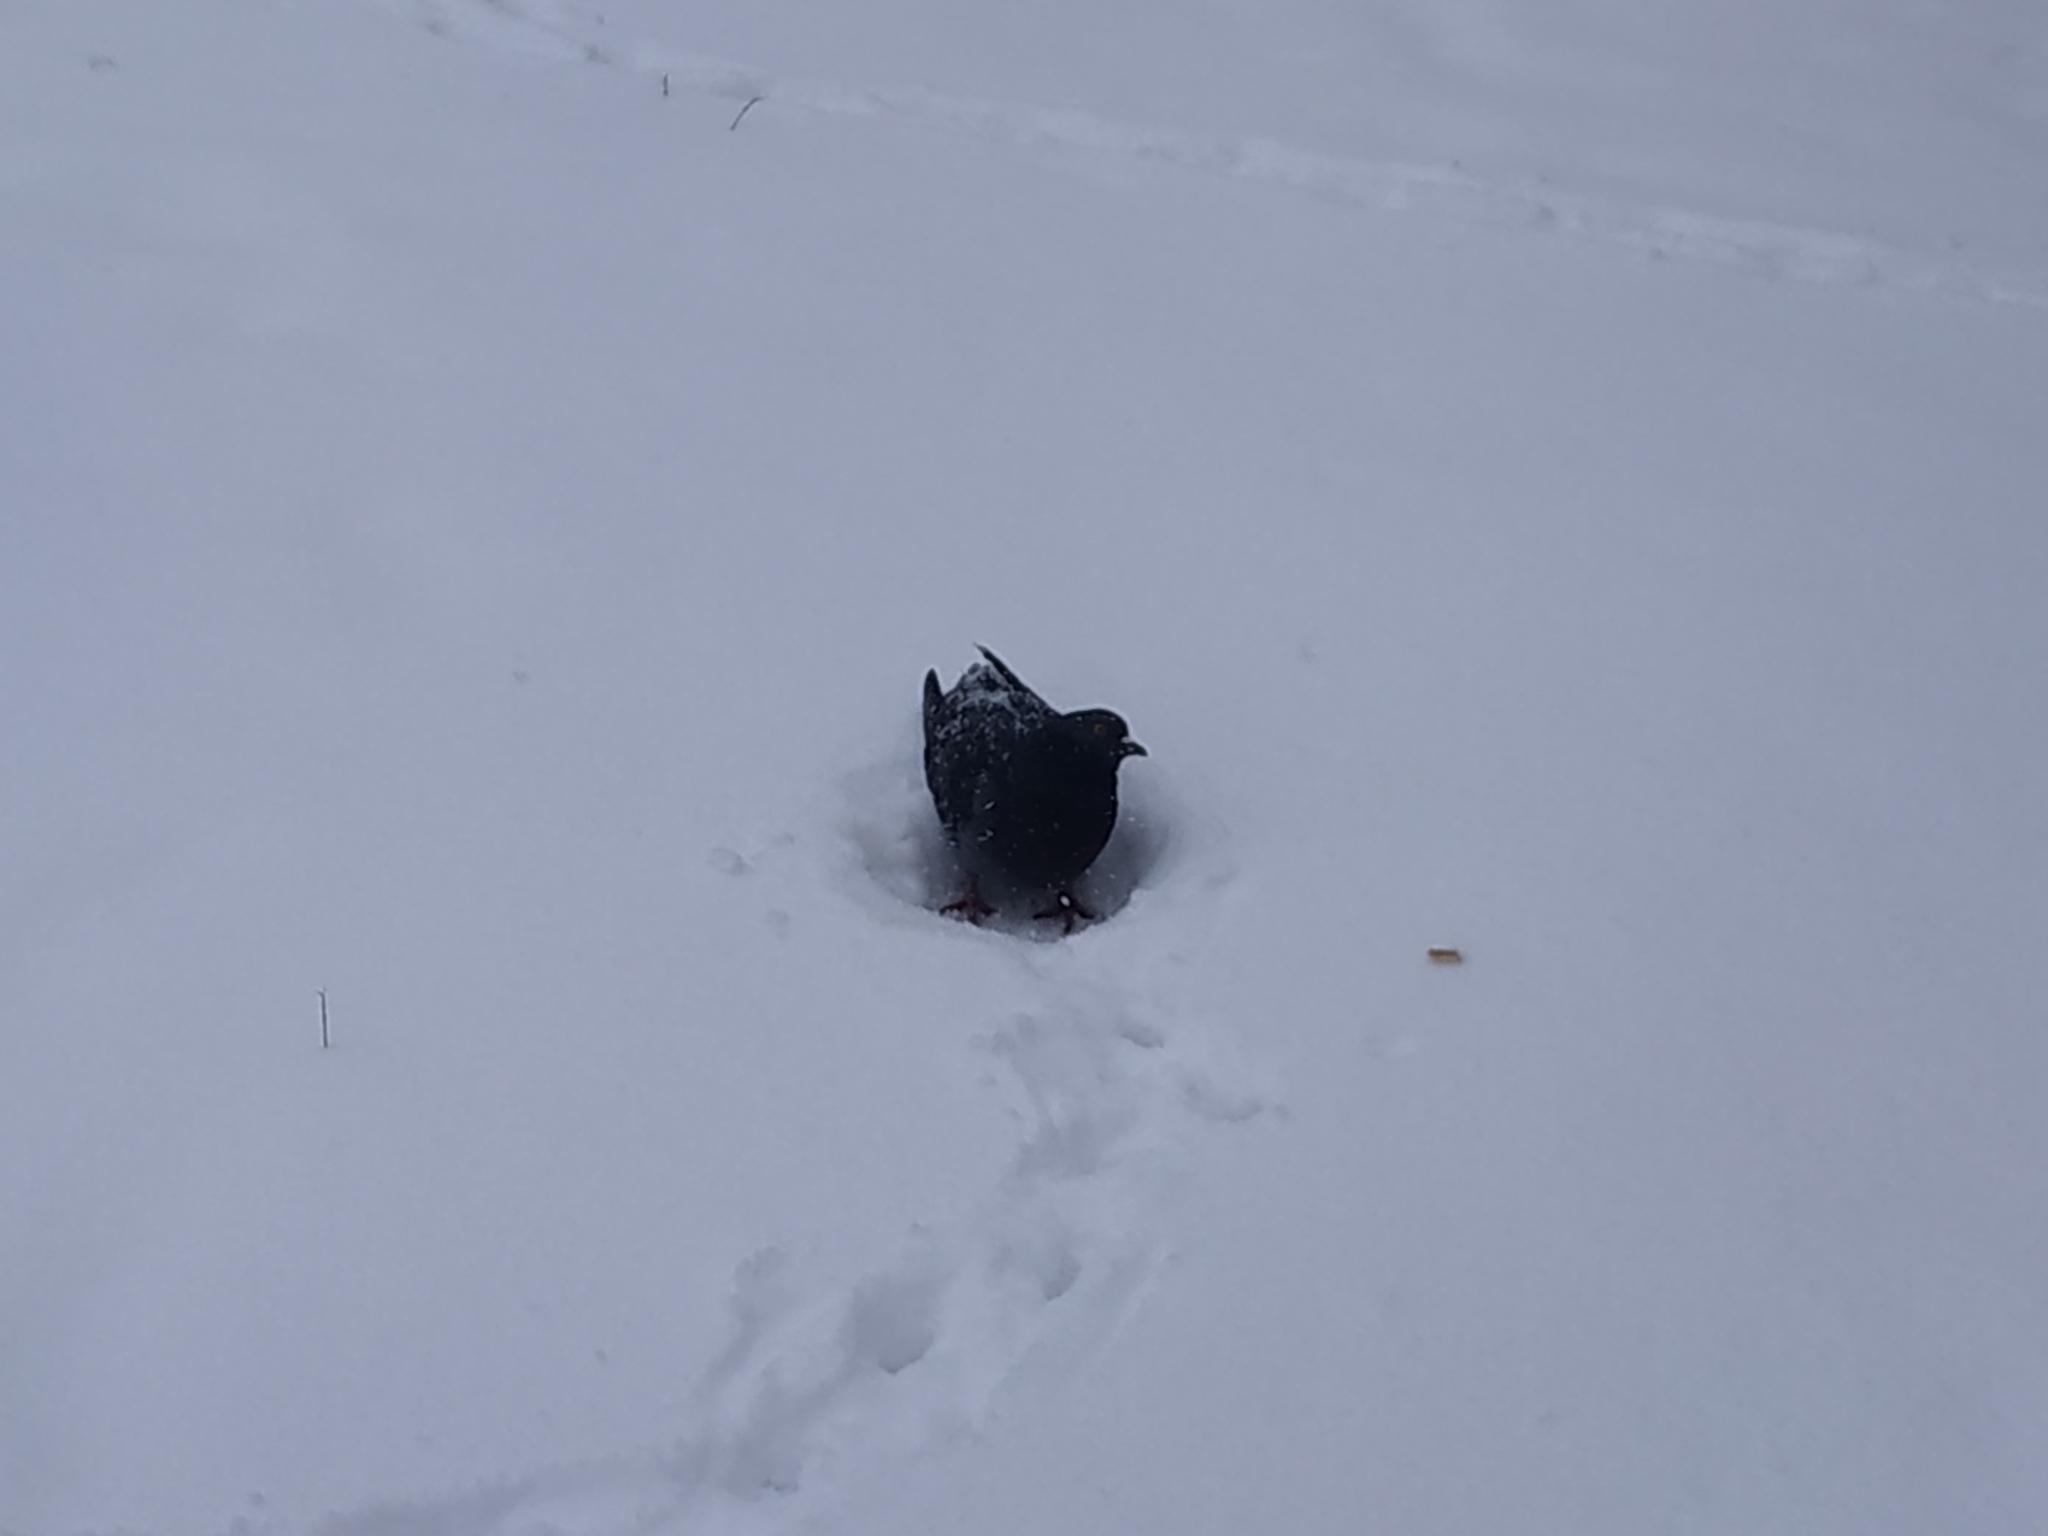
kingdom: Animalia
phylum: Chordata
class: Aves
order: Columbiformes
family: Columbidae
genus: Columba
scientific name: Columba livia
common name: Rock pigeon
